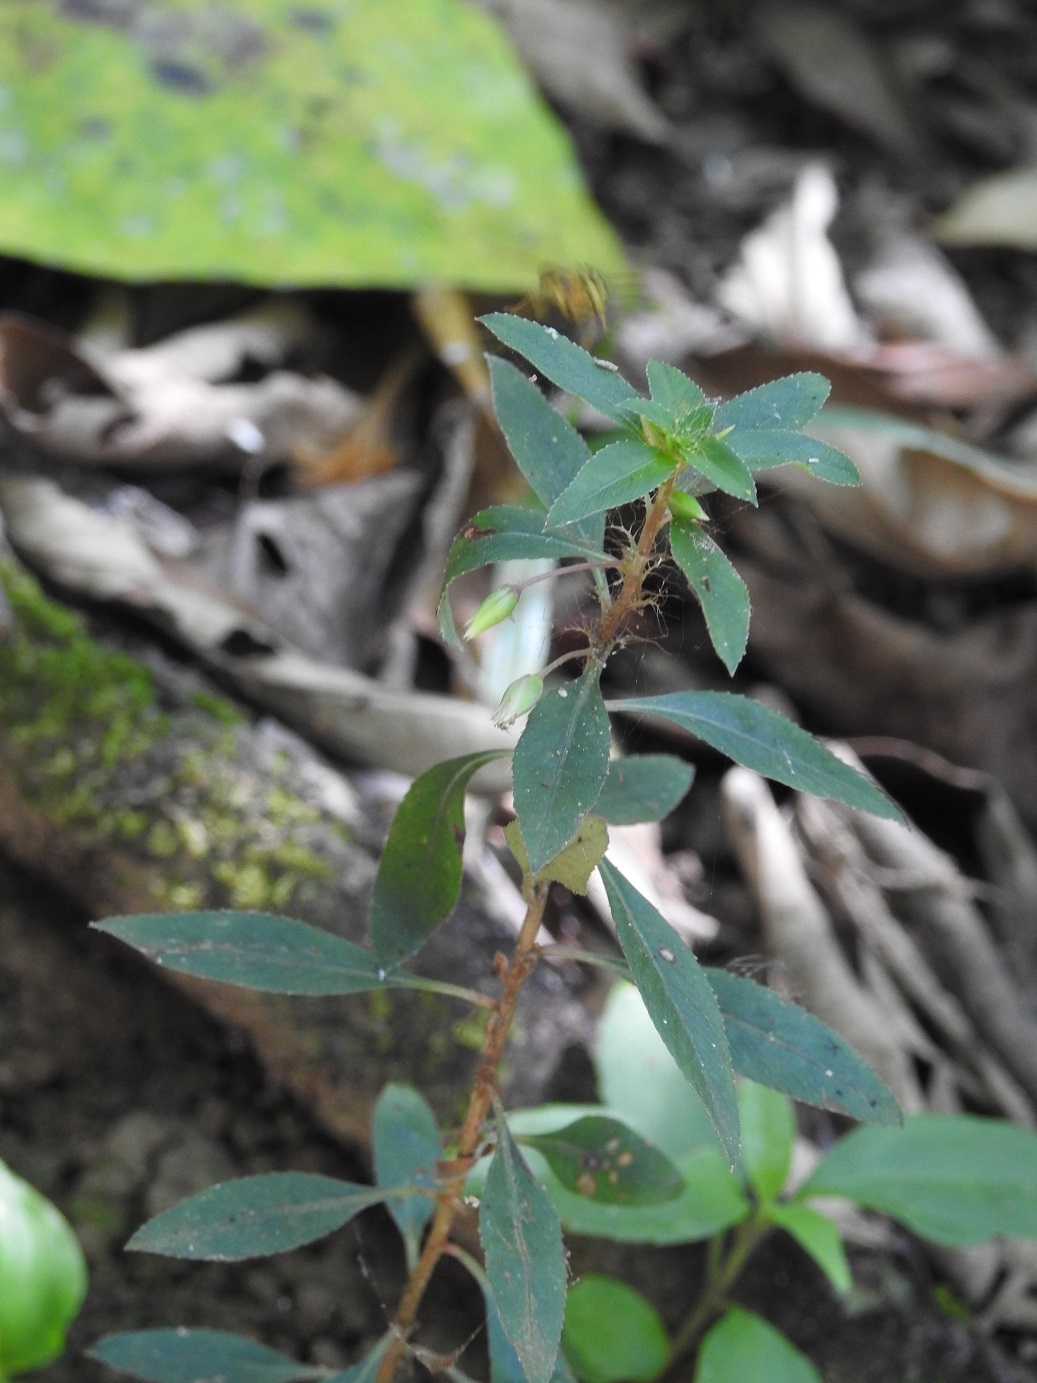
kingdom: Plantae
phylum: Tracheophyta
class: Magnoliopsida
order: Malpighiales
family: Ochnaceae
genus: Sauvagesia
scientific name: Sauvagesia erecta
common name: Creole tea
